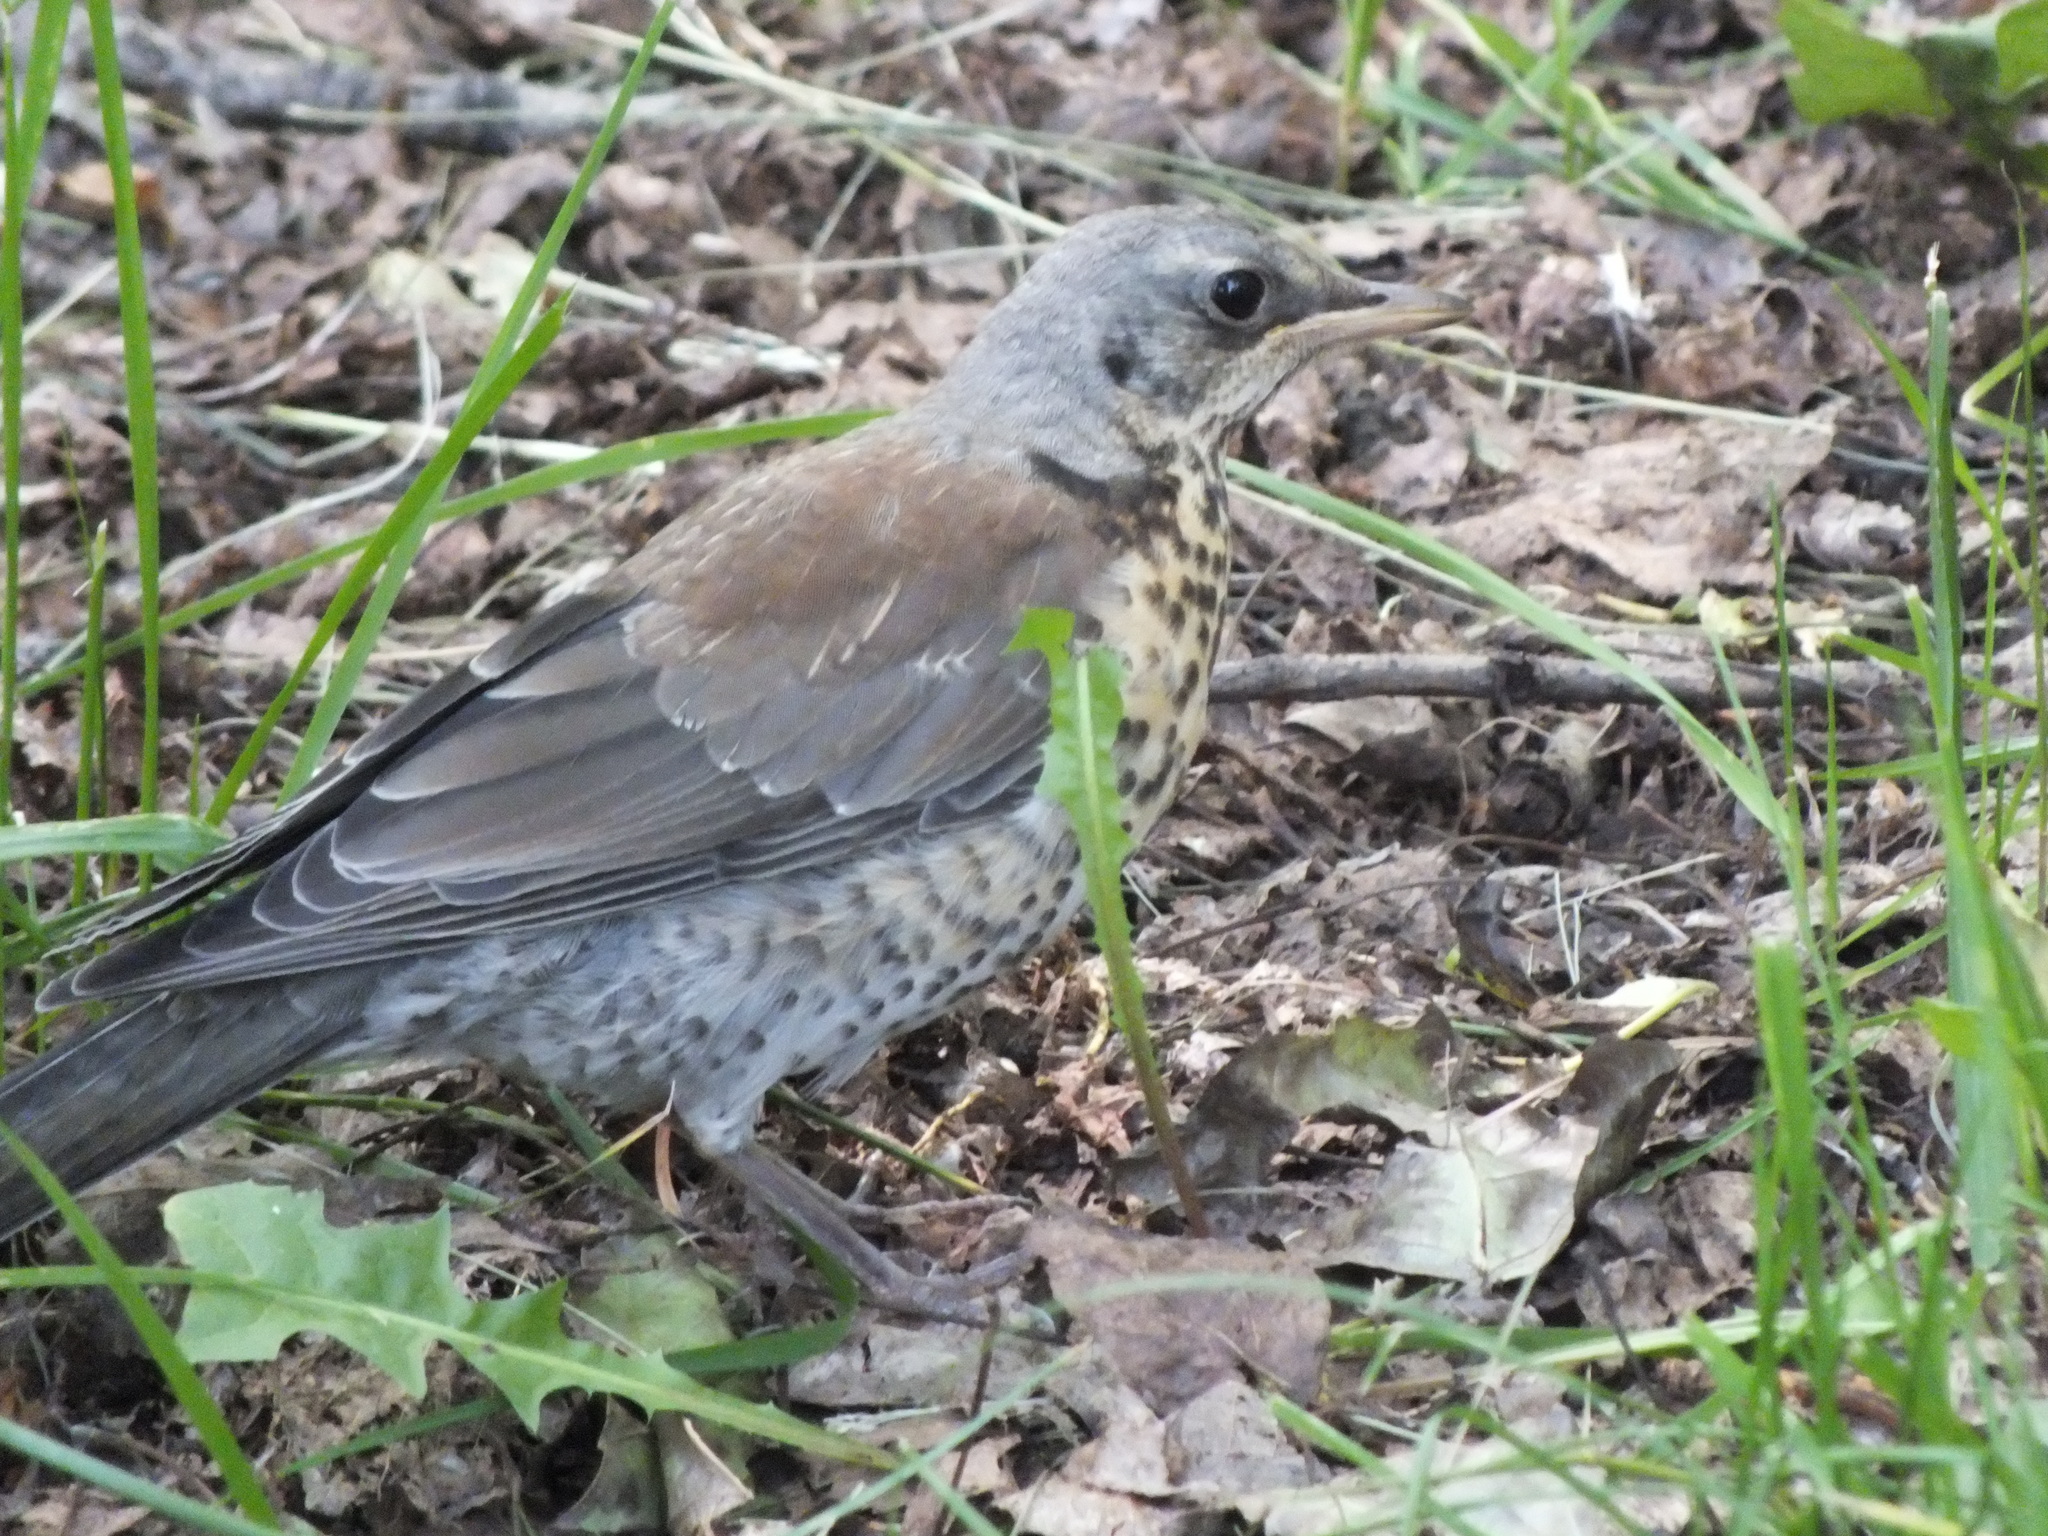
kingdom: Animalia
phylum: Chordata
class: Aves
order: Passeriformes
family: Turdidae
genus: Turdus
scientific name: Turdus pilaris
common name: Fieldfare
